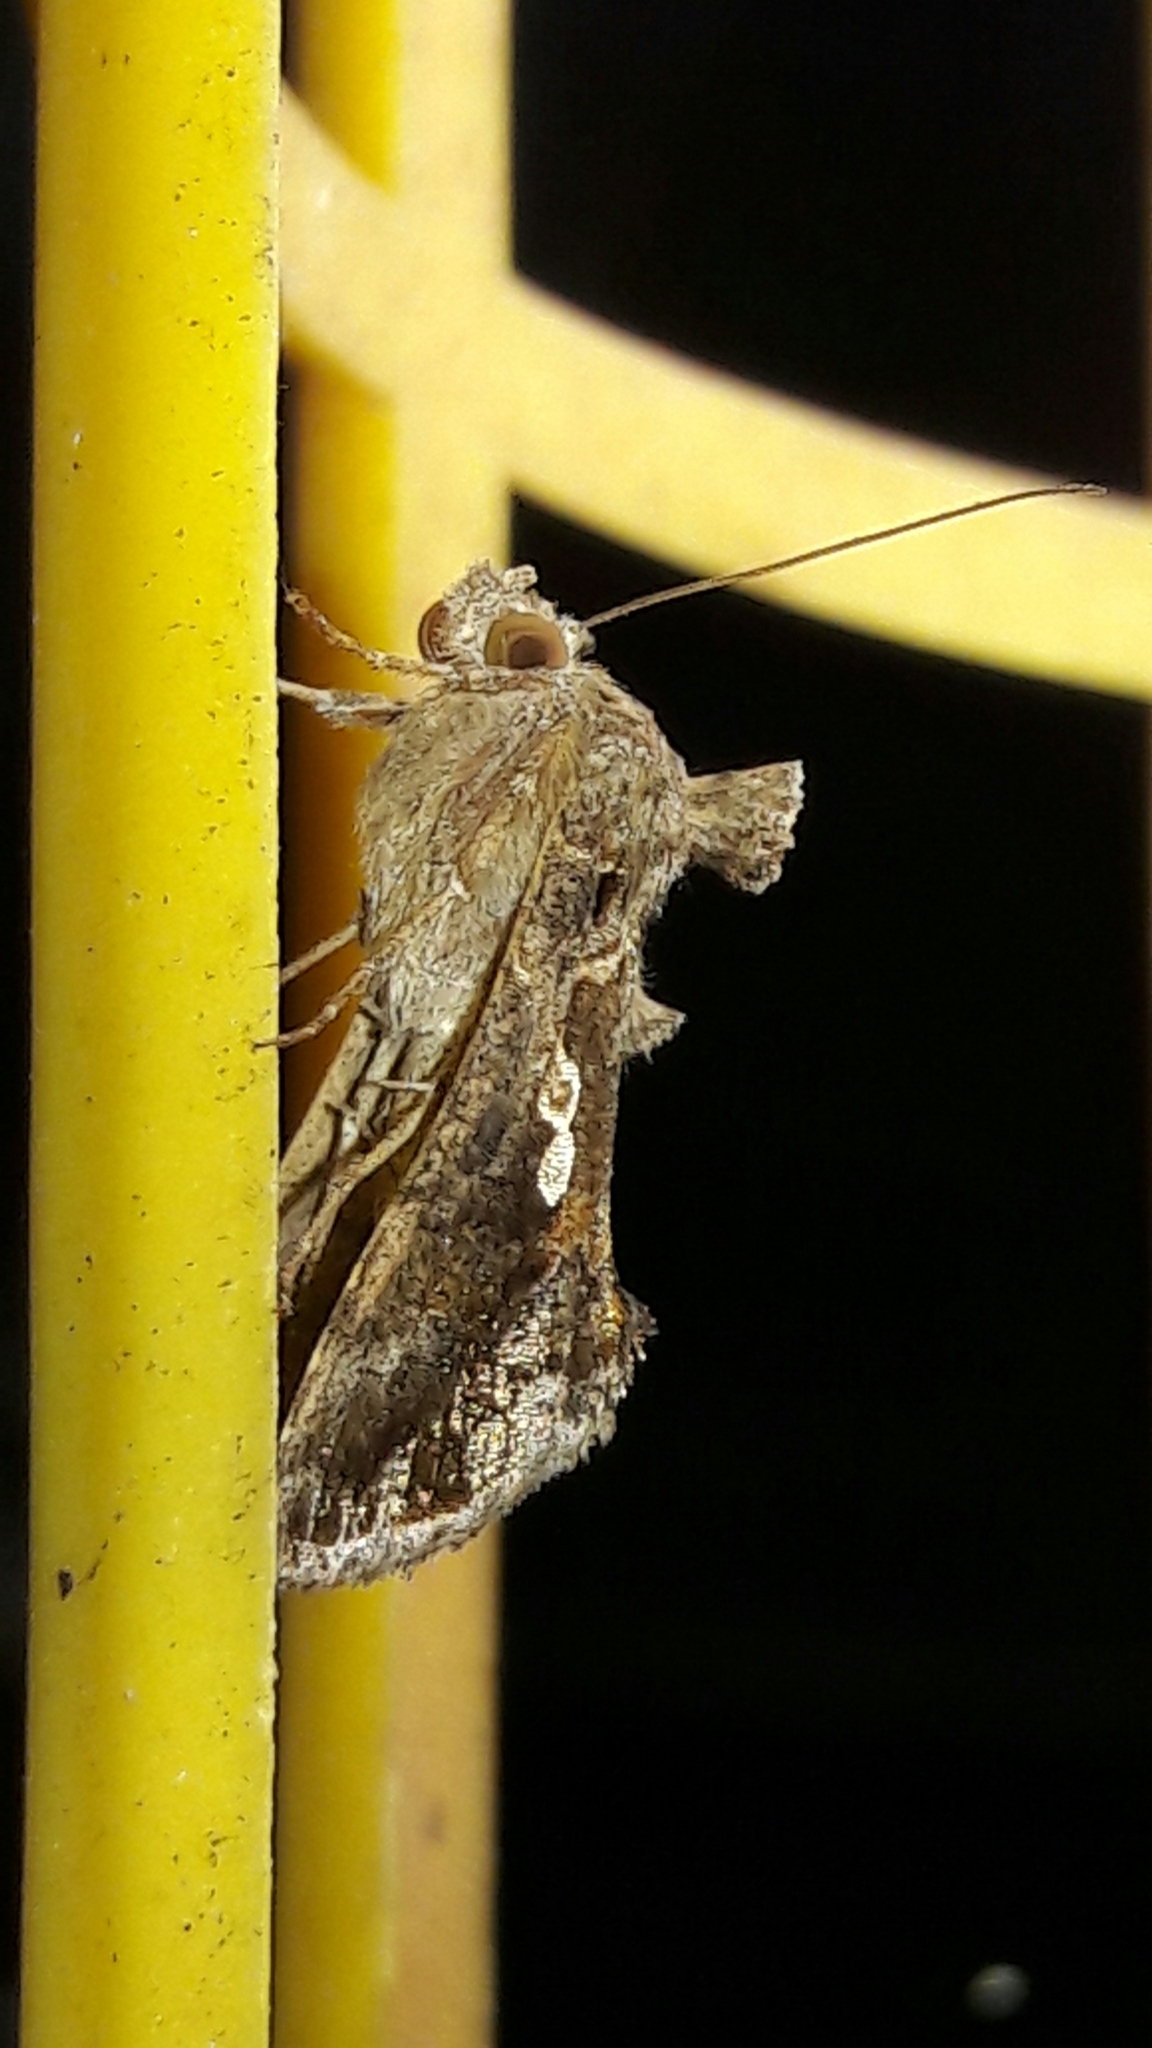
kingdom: Animalia
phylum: Arthropoda
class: Insecta
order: Lepidoptera
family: Noctuidae
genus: Chrysodeixis
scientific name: Chrysodeixis includens
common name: Cutworm moth
